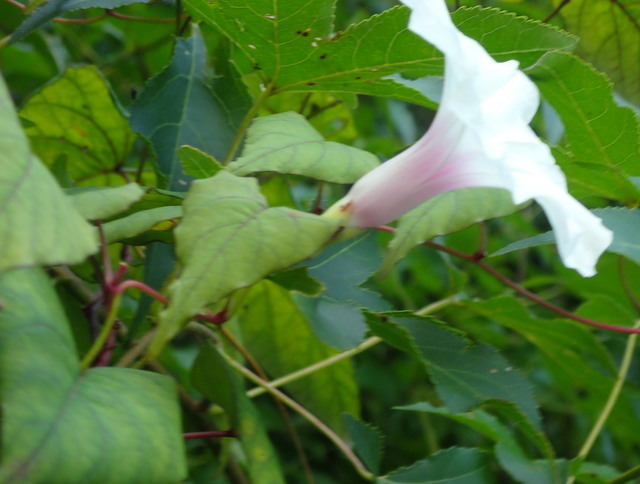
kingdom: Plantae
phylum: Tracheophyta
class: Magnoliopsida
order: Solanales
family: Convolvulaceae
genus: Ipomoea
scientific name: Ipomoea pandurata
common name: Man-of-the-earth
